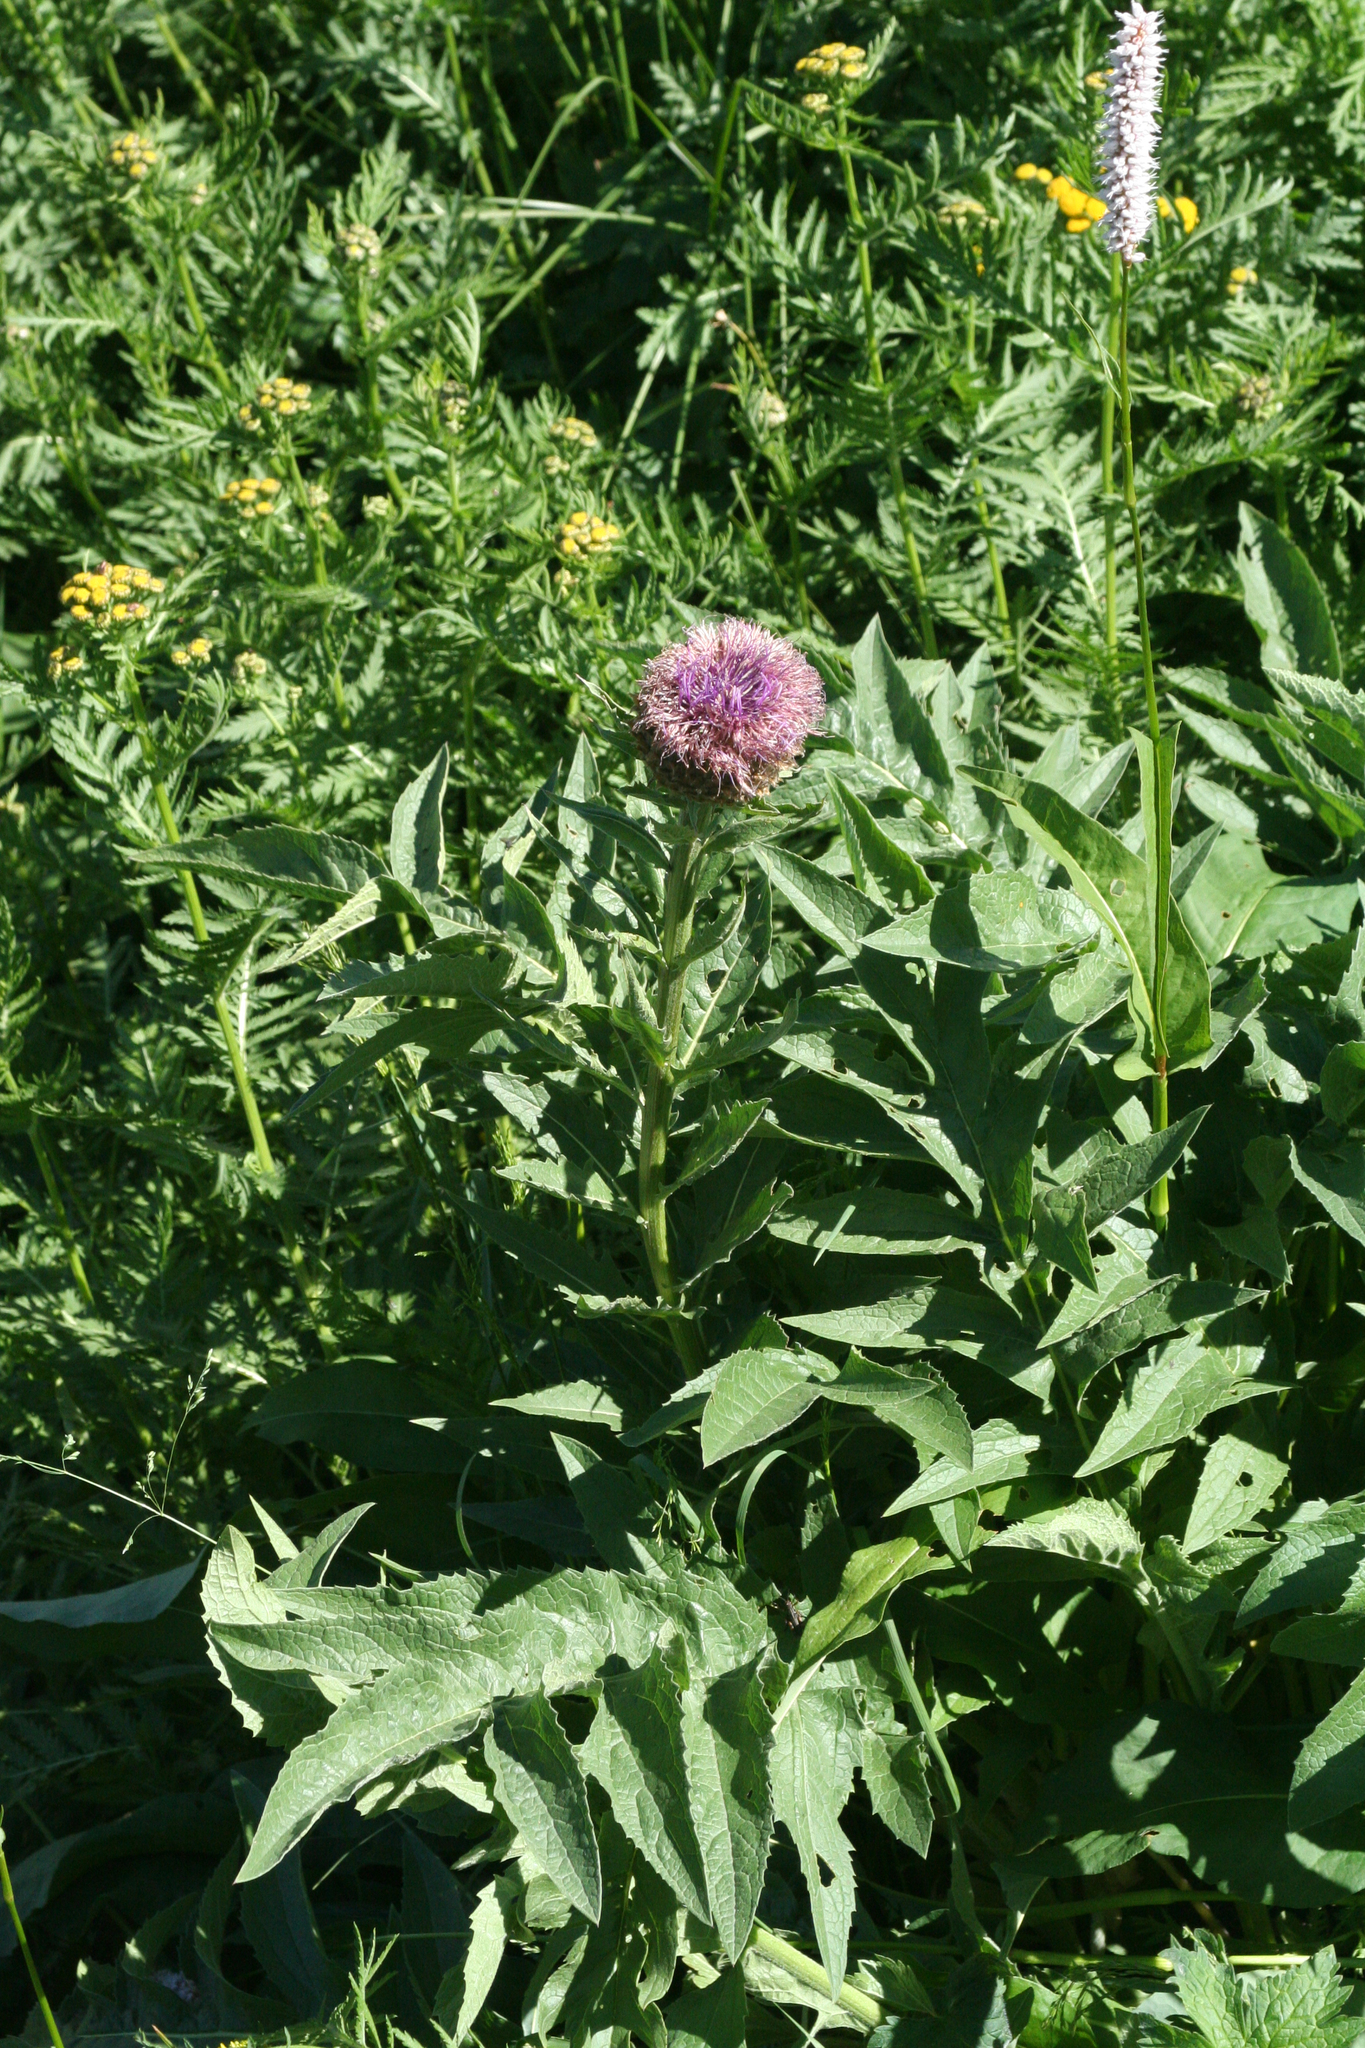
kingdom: Plantae
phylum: Tracheophyta
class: Magnoliopsida
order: Asterales
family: Asteraceae
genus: Leuzea
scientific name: Leuzea carthamoides
